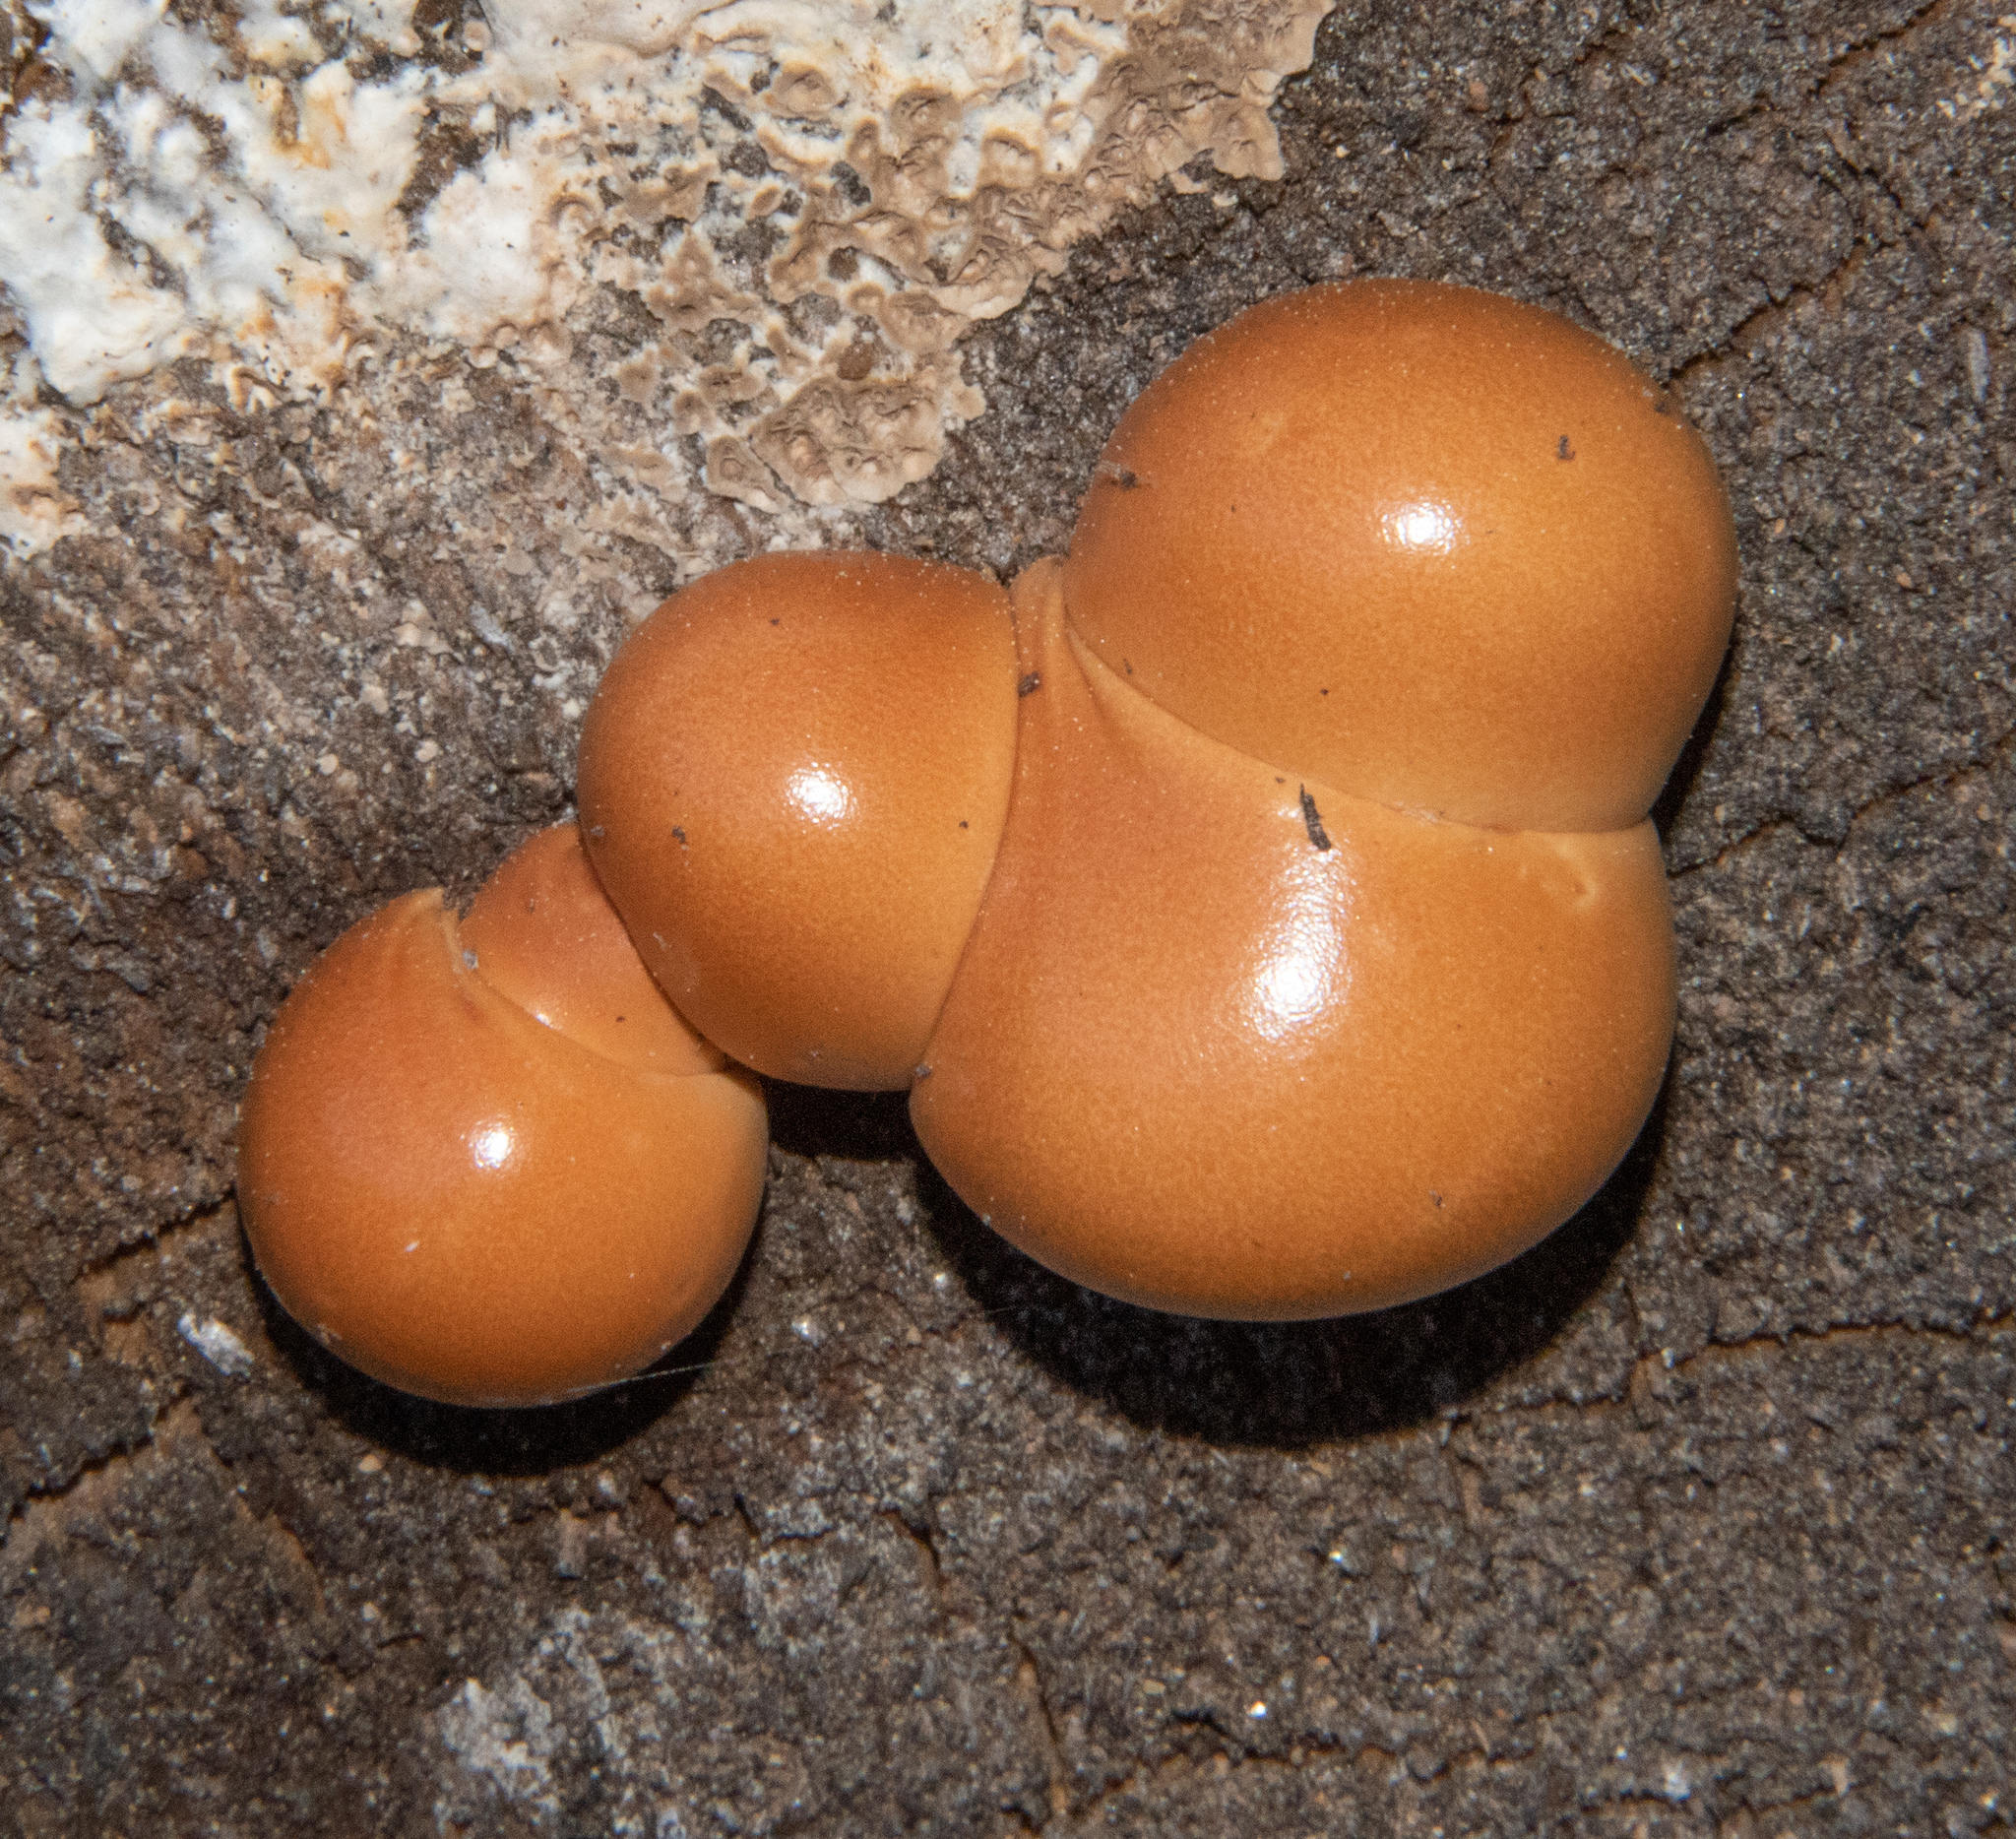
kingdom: Protozoa
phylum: Mycetozoa
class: Myxomycetes
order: Cribrariales
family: Tubiferaceae
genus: Lycogala
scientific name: Lycogala epidendrum
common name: Wolf's milk
